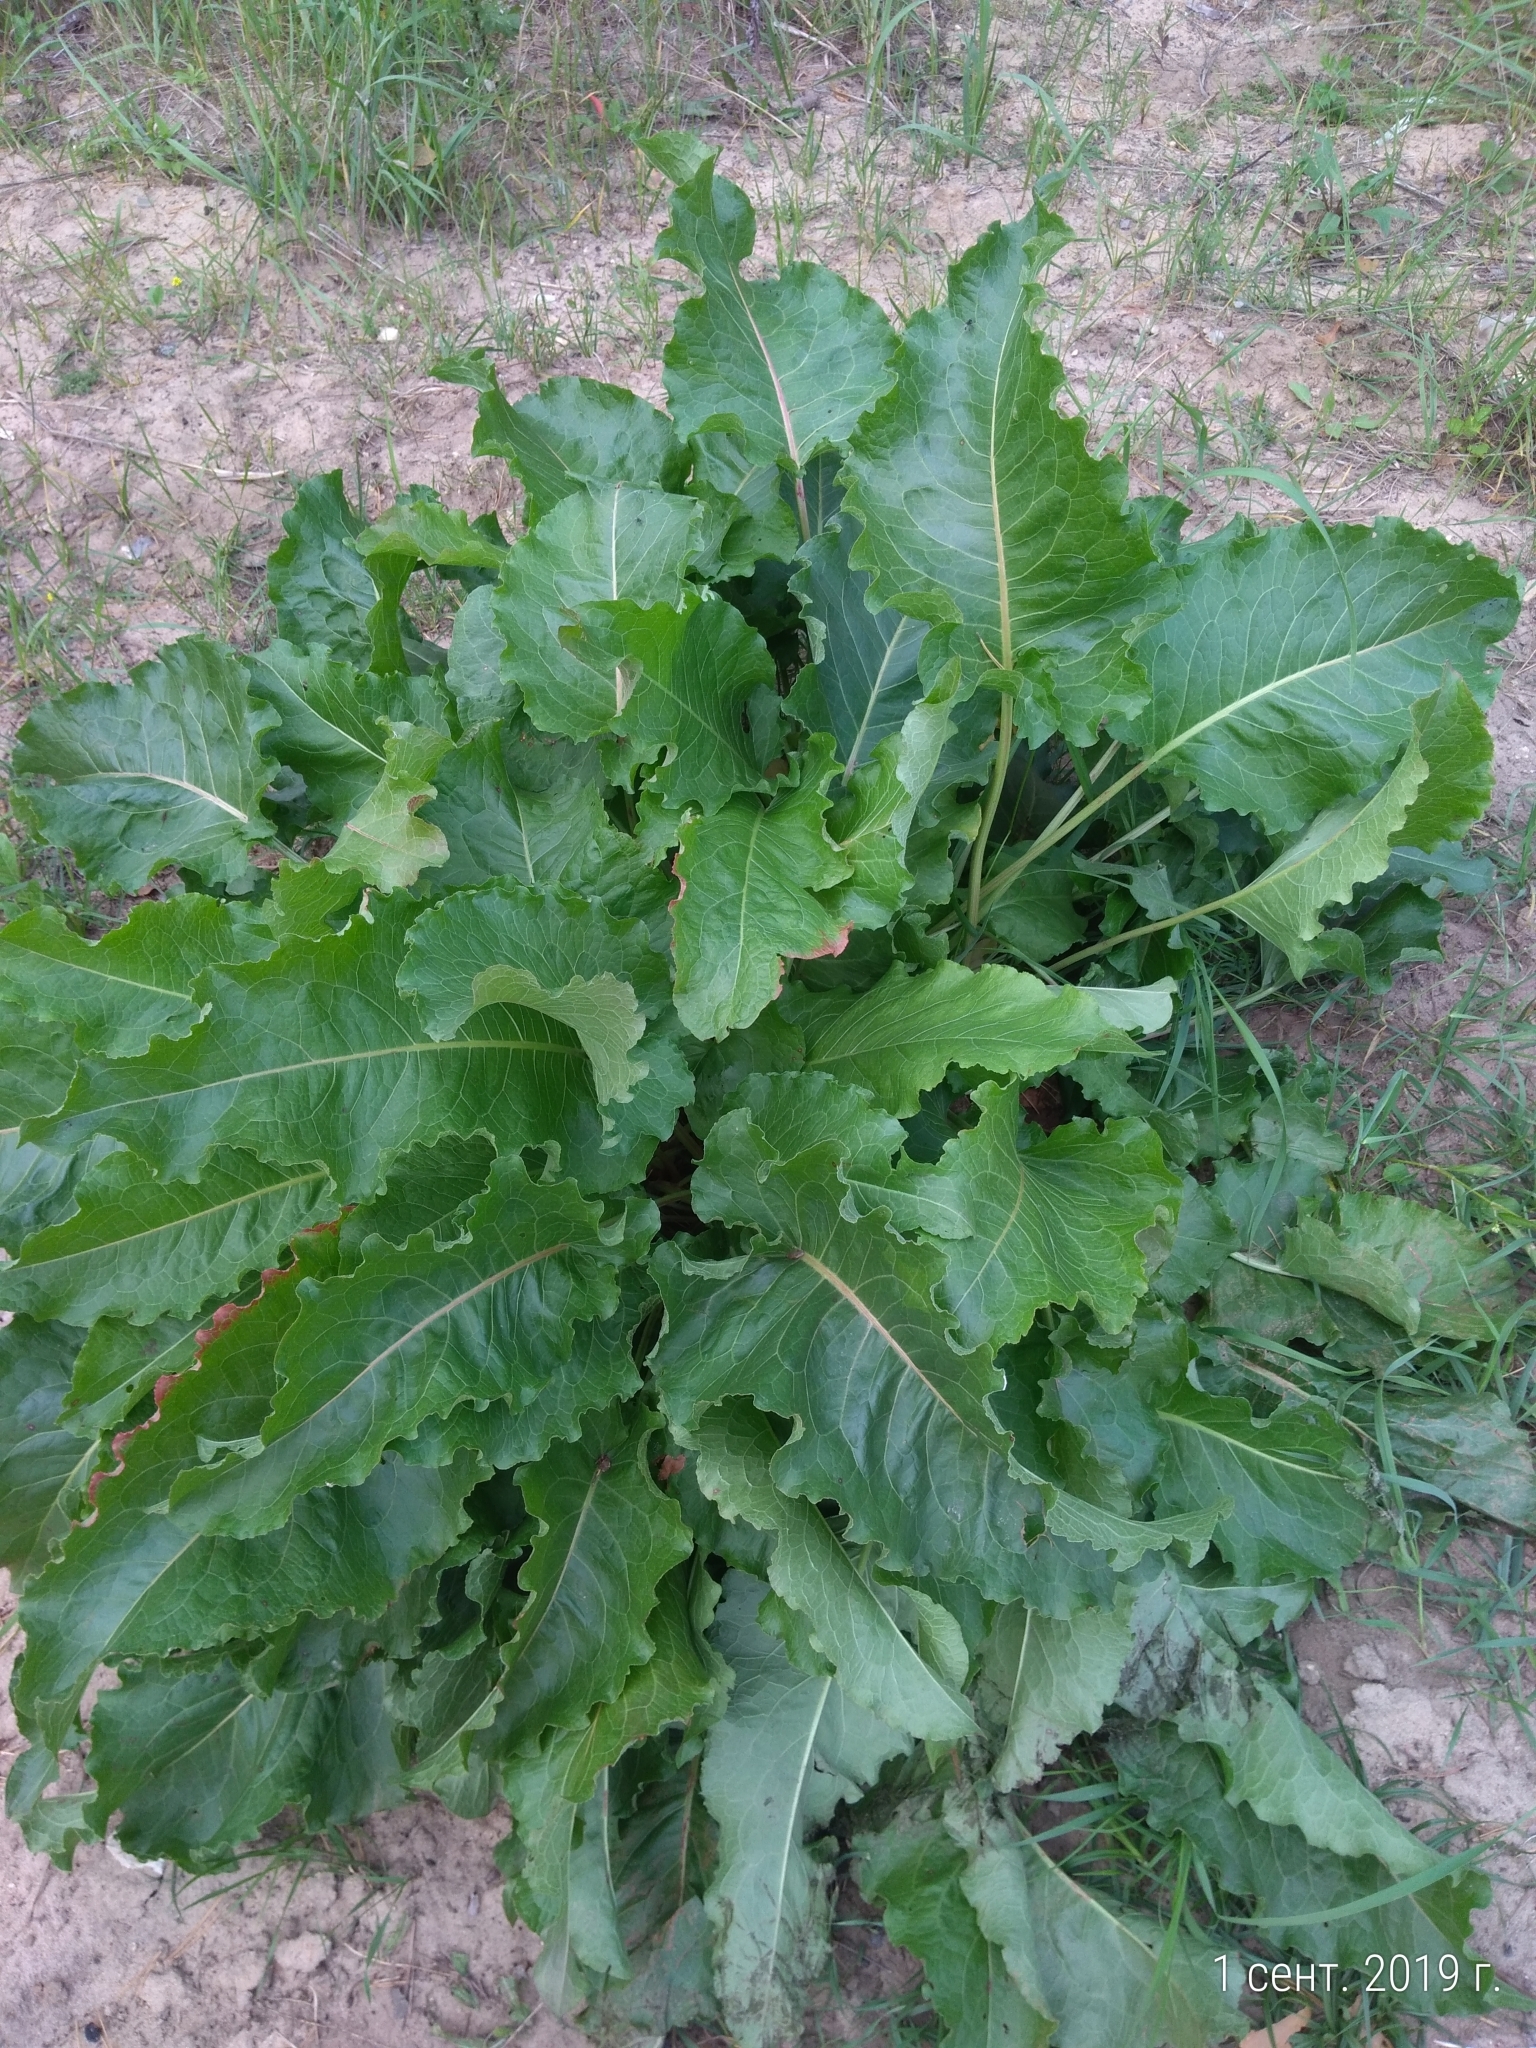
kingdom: Plantae
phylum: Tracheophyta
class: Magnoliopsida
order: Caryophyllales
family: Polygonaceae
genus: Rumex
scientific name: Rumex confertus
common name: Russian dock
